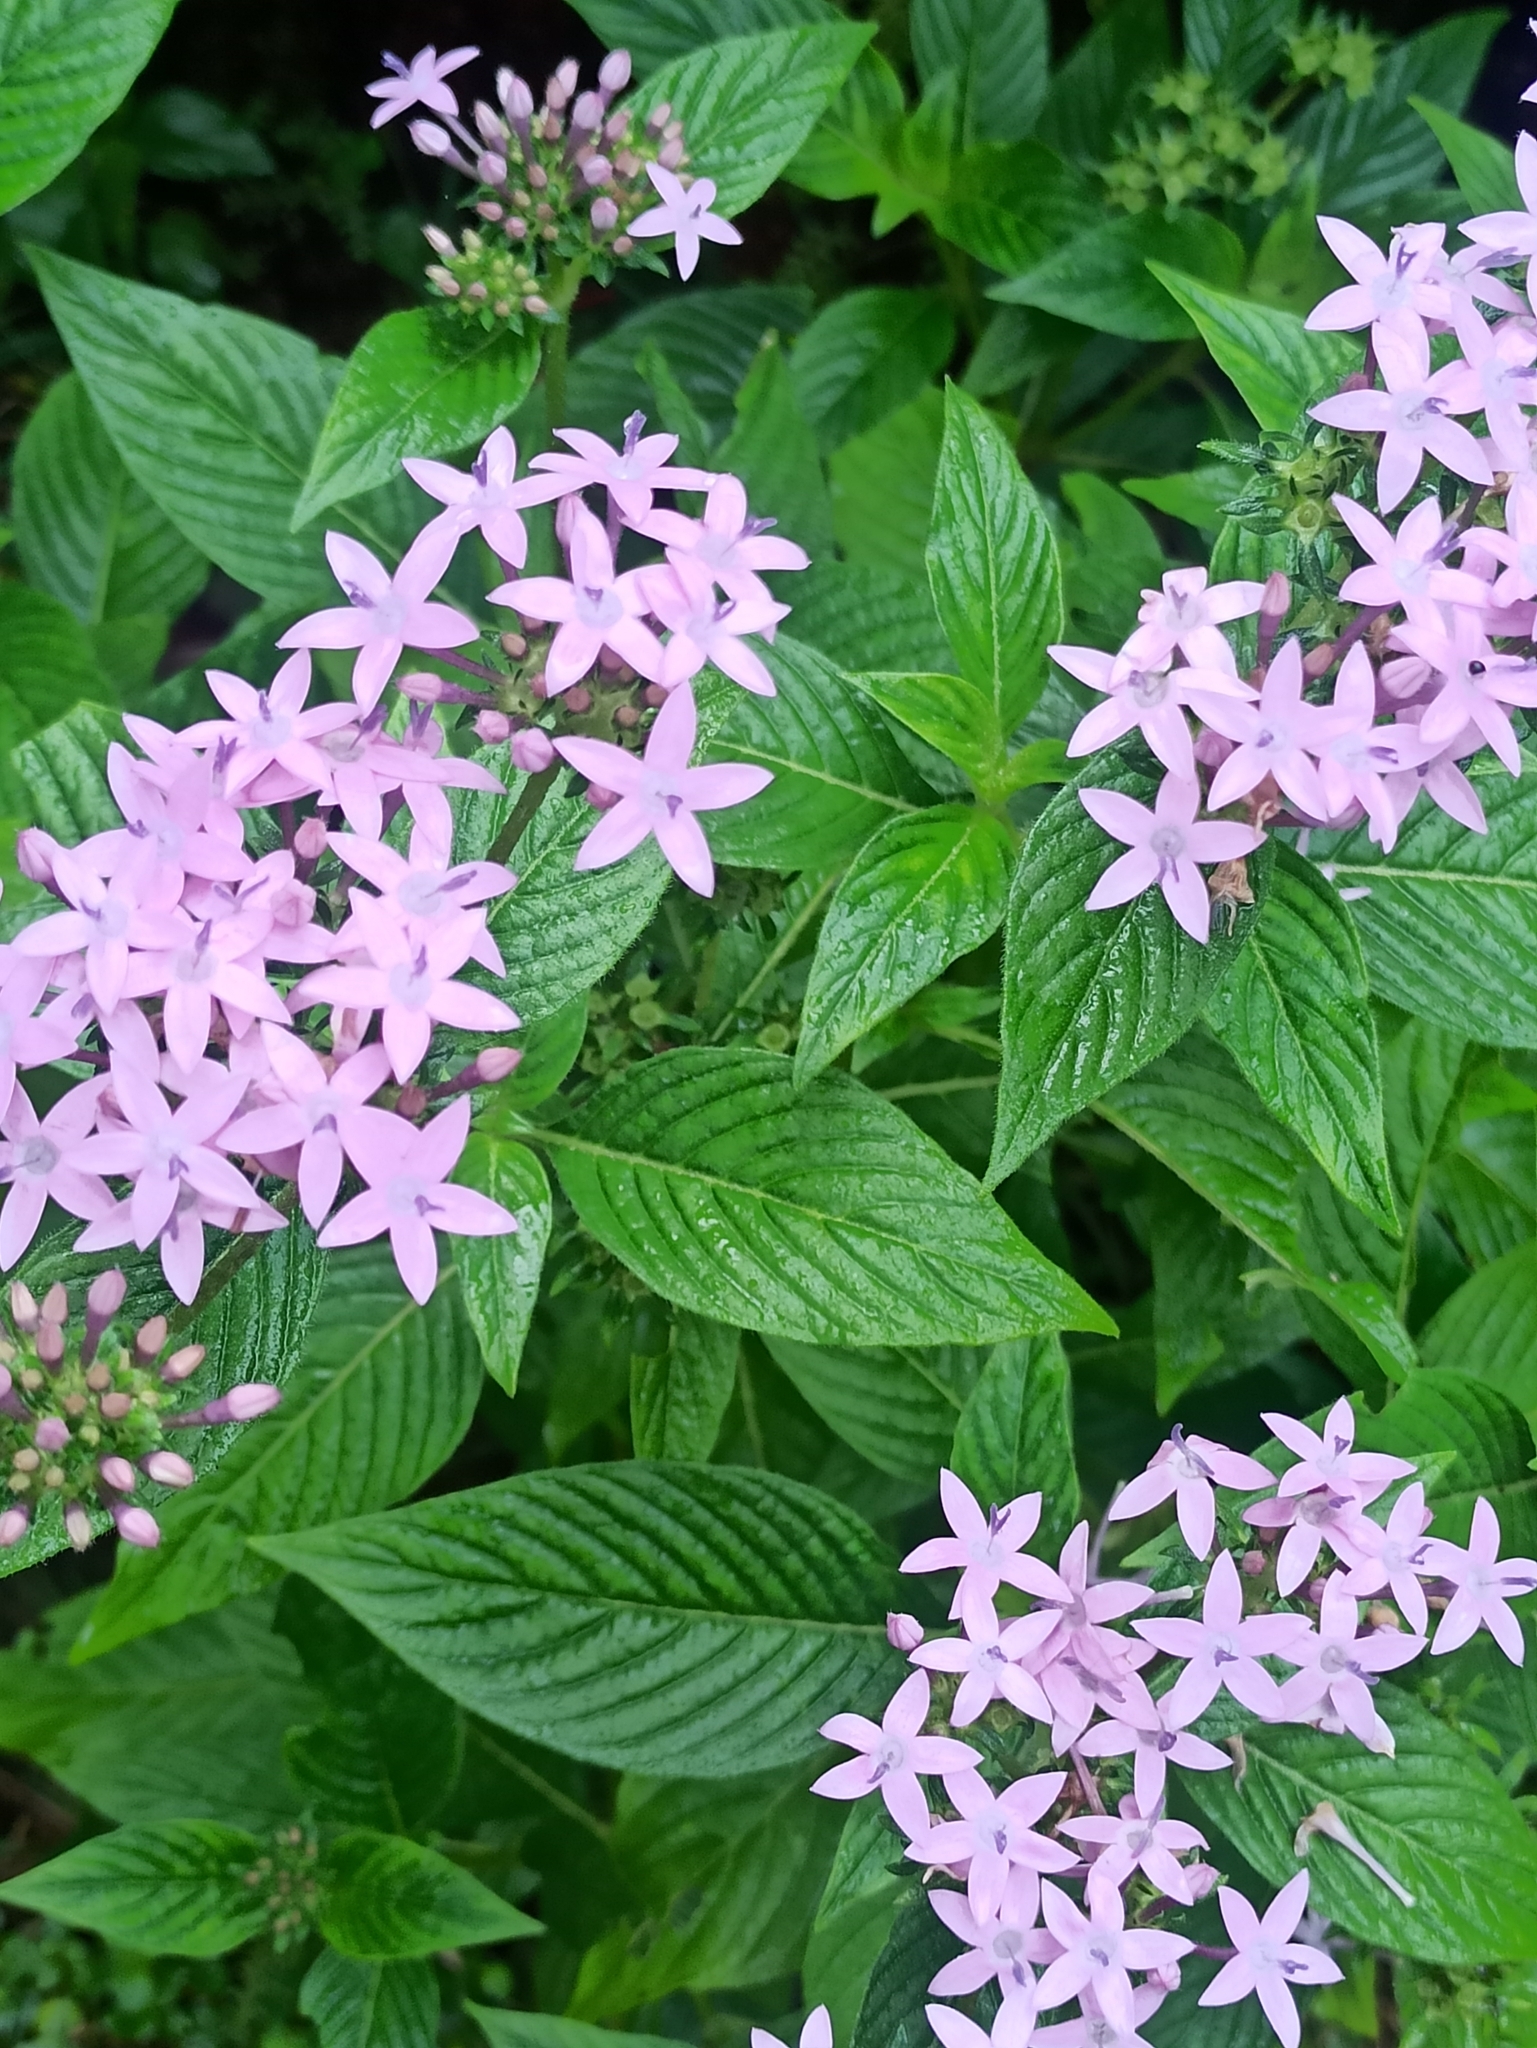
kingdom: Plantae
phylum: Tracheophyta
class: Magnoliopsida
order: Gentianales
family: Rubiaceae
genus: Pentas
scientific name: Pentas lanceolata
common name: Egyptian starcluster
